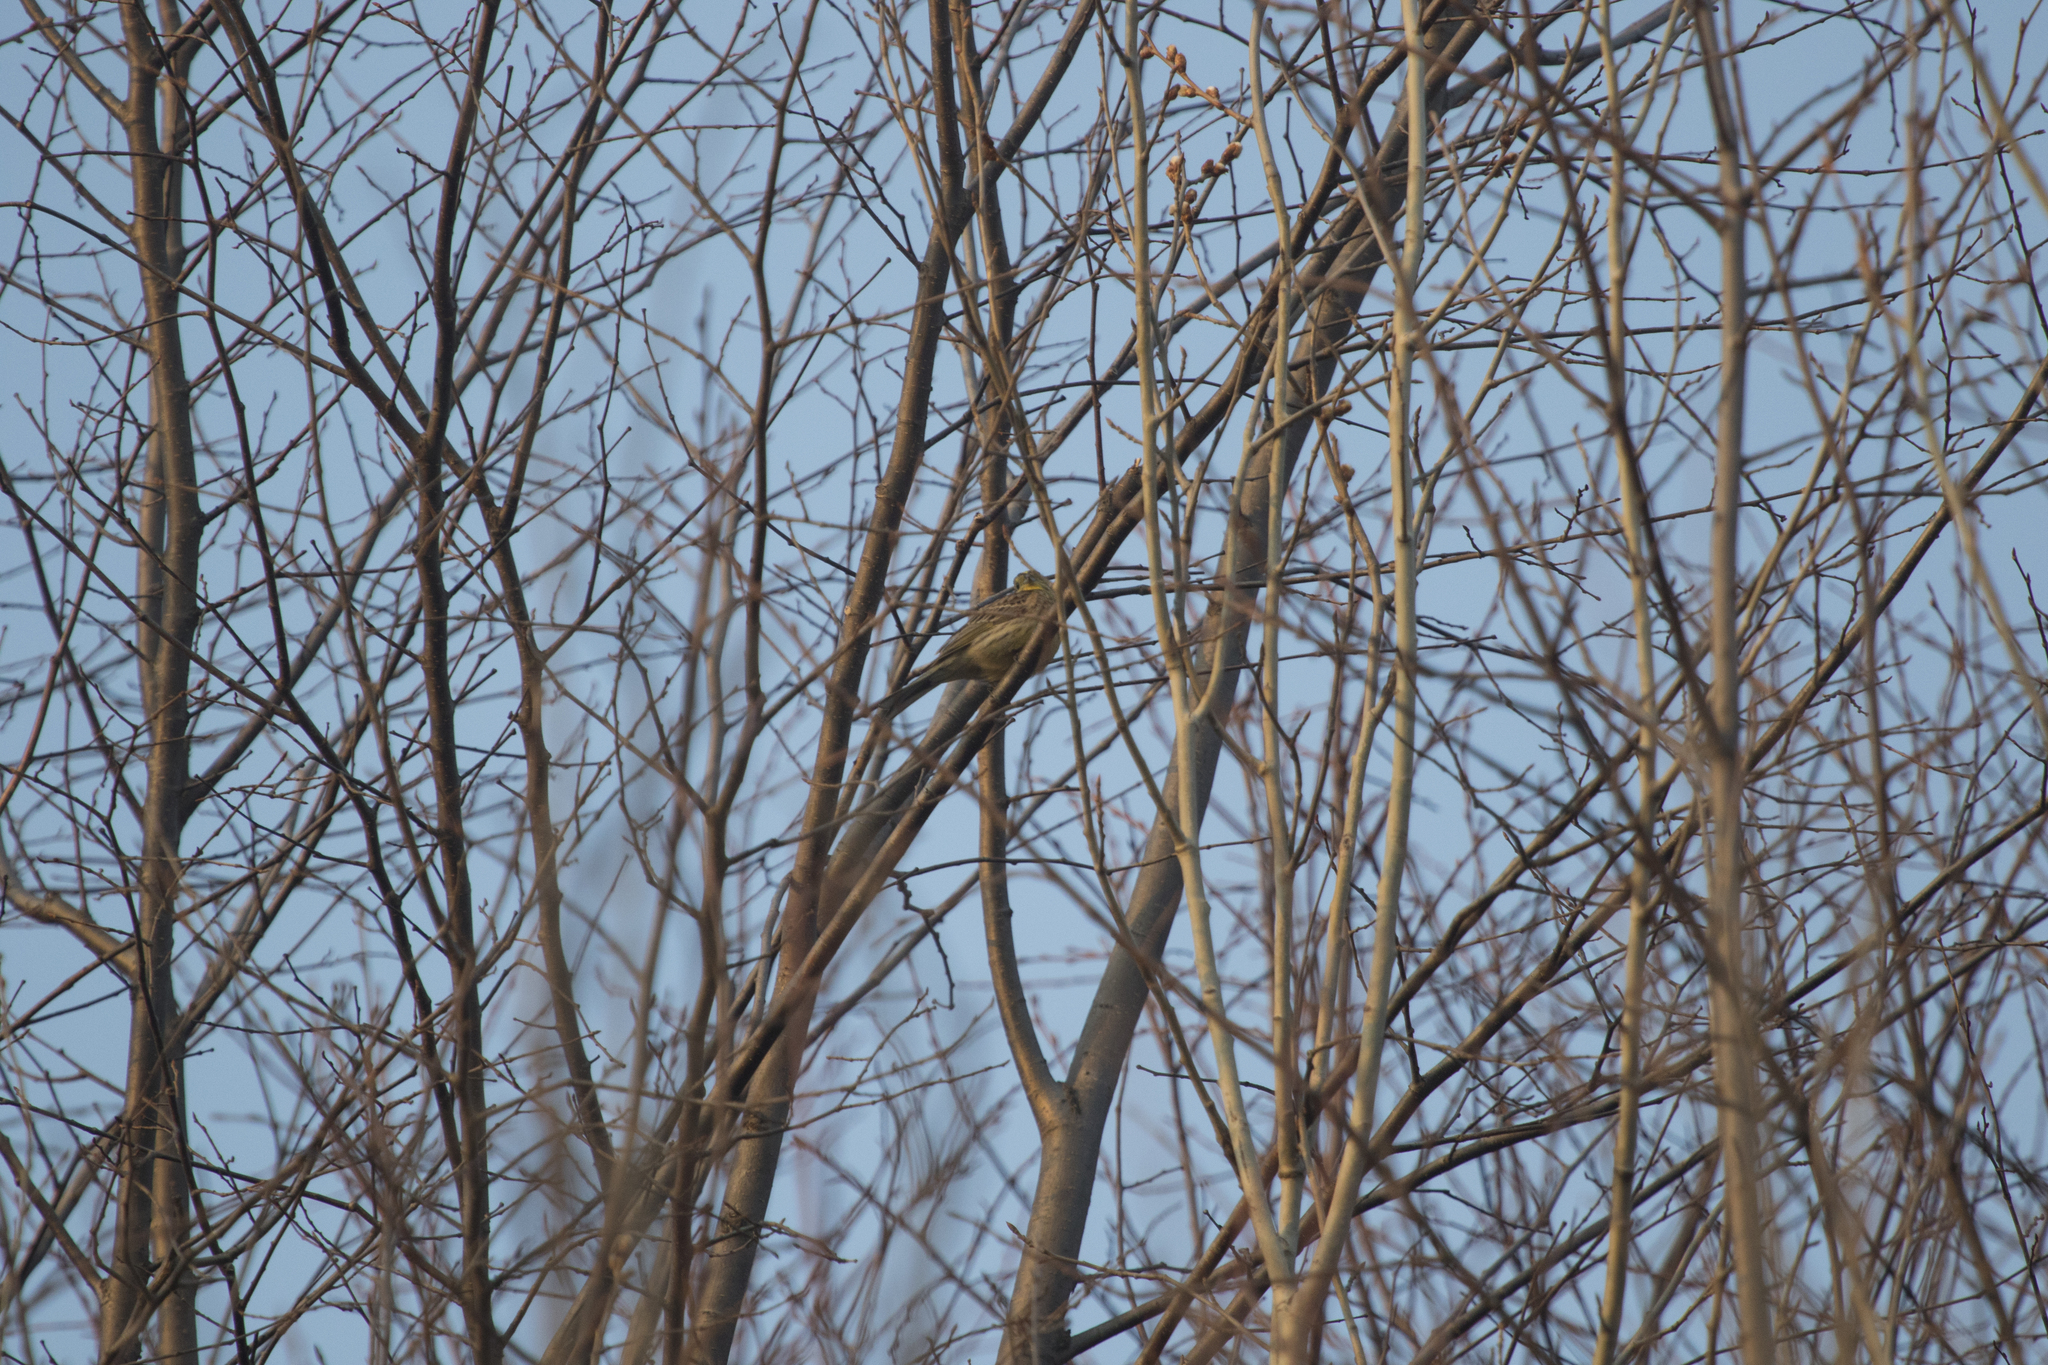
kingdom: Animalia
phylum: Chordata
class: Aves
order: Passeriformes
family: Emberizidae
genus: Emberiza
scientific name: Emberiza citrinella
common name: Yellowhammer
